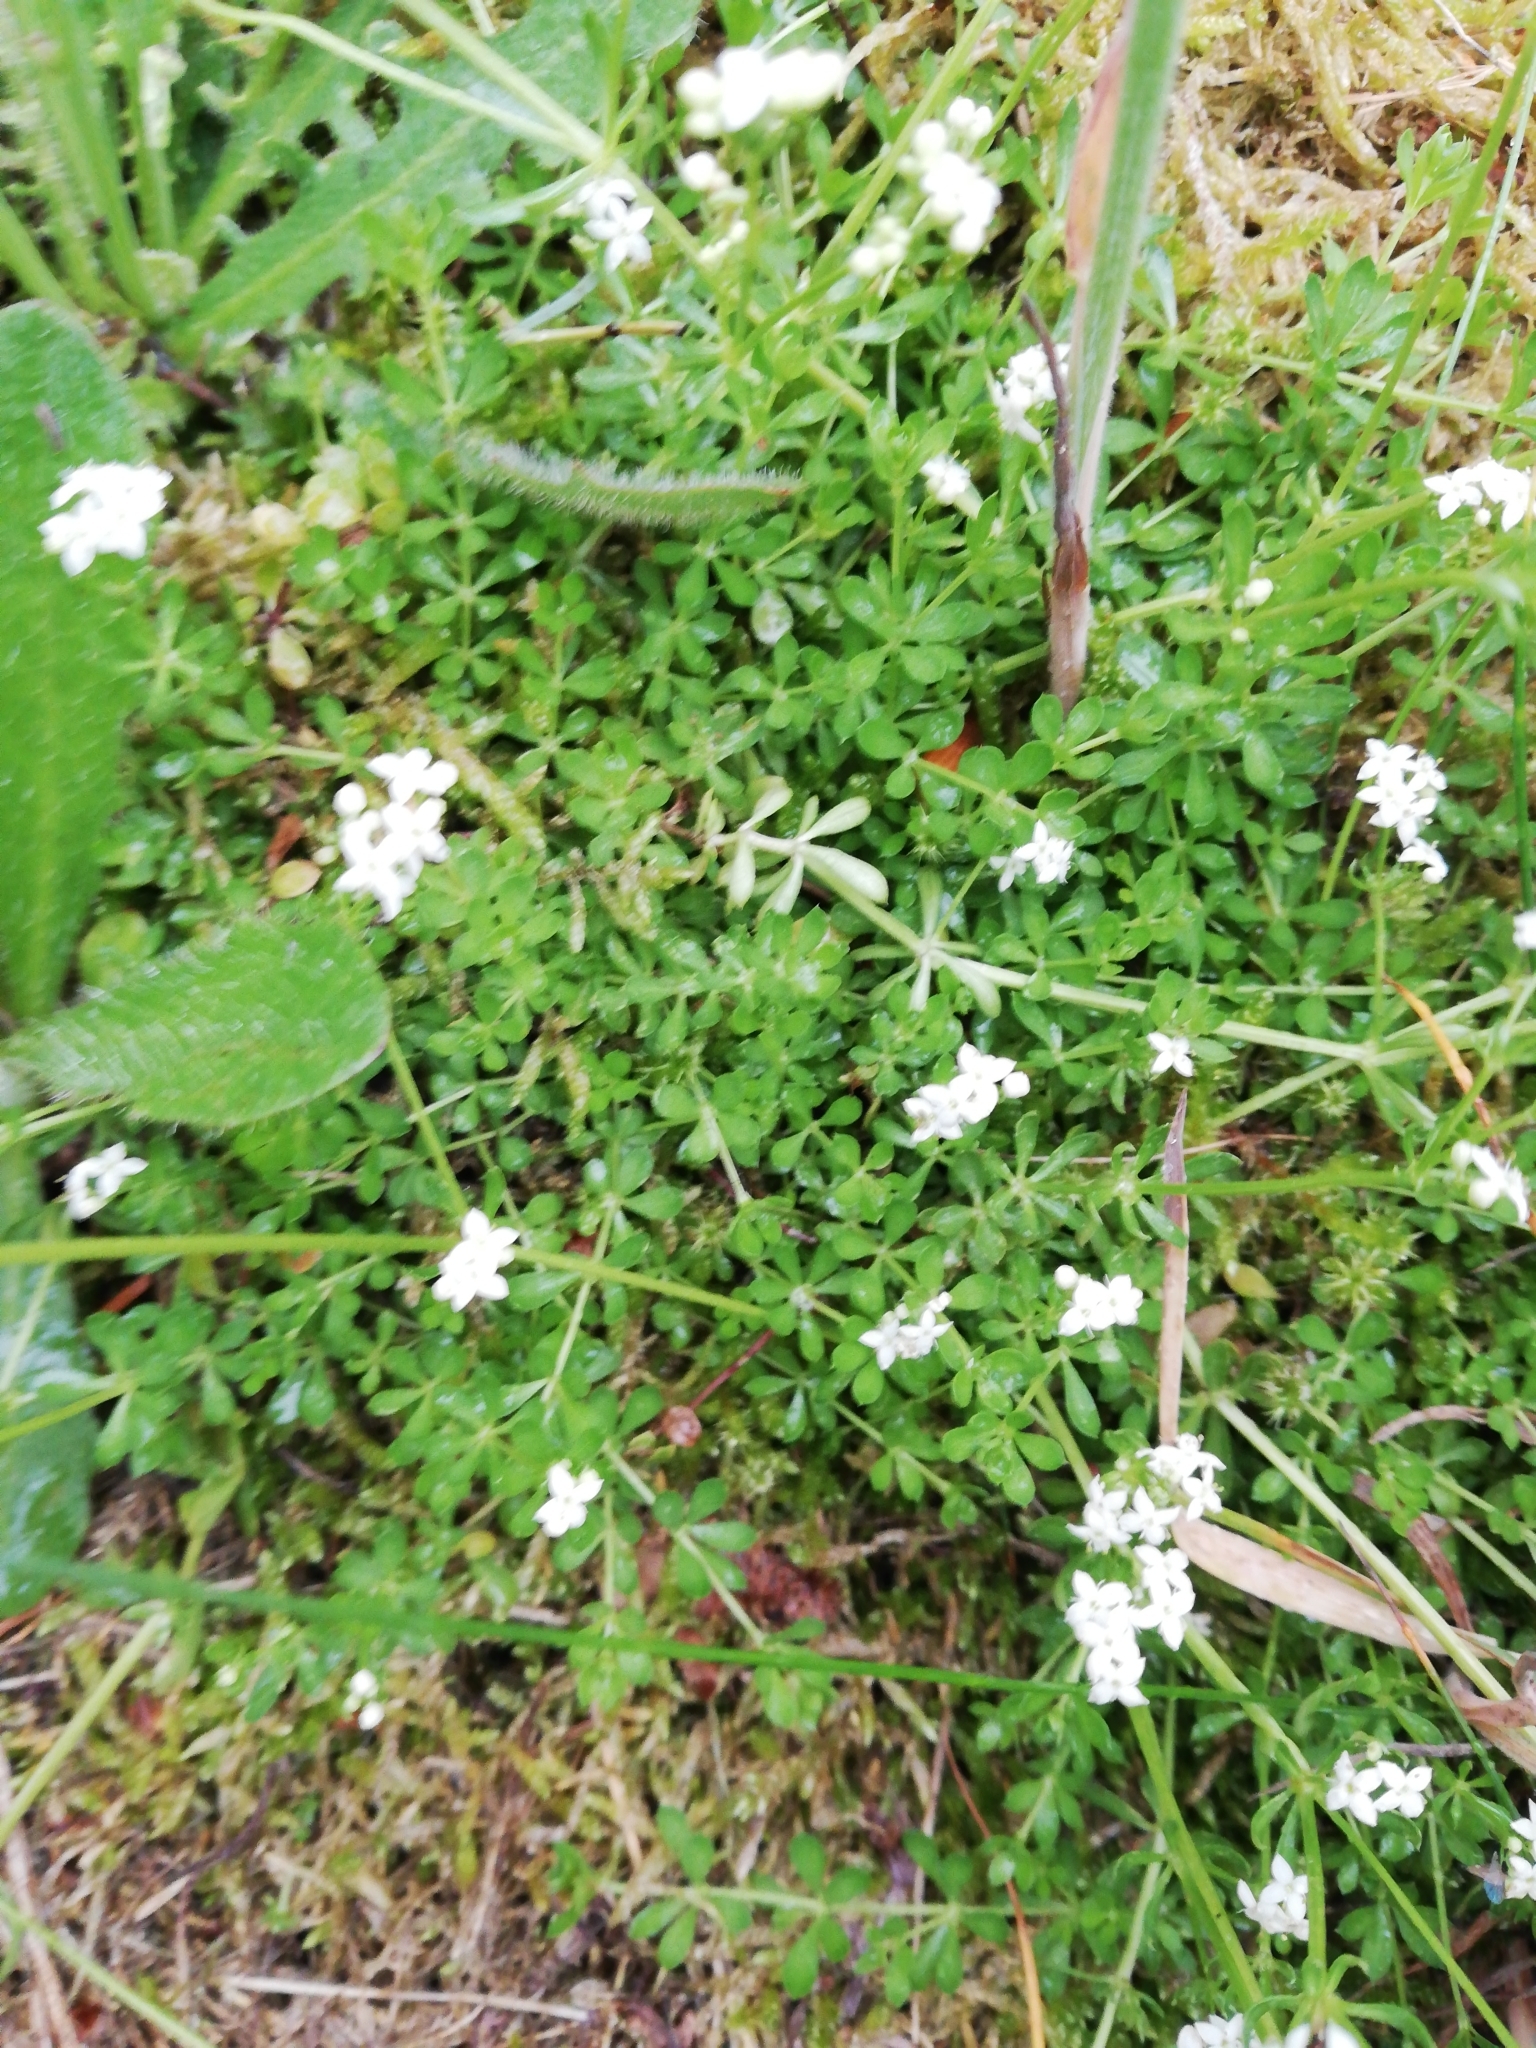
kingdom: Plantae
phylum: Tracheophyta
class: Magnoliopsida
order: Gentianales
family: Rubiaceae
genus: Galium
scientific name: Galium saxatile
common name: Heath bedstraw
